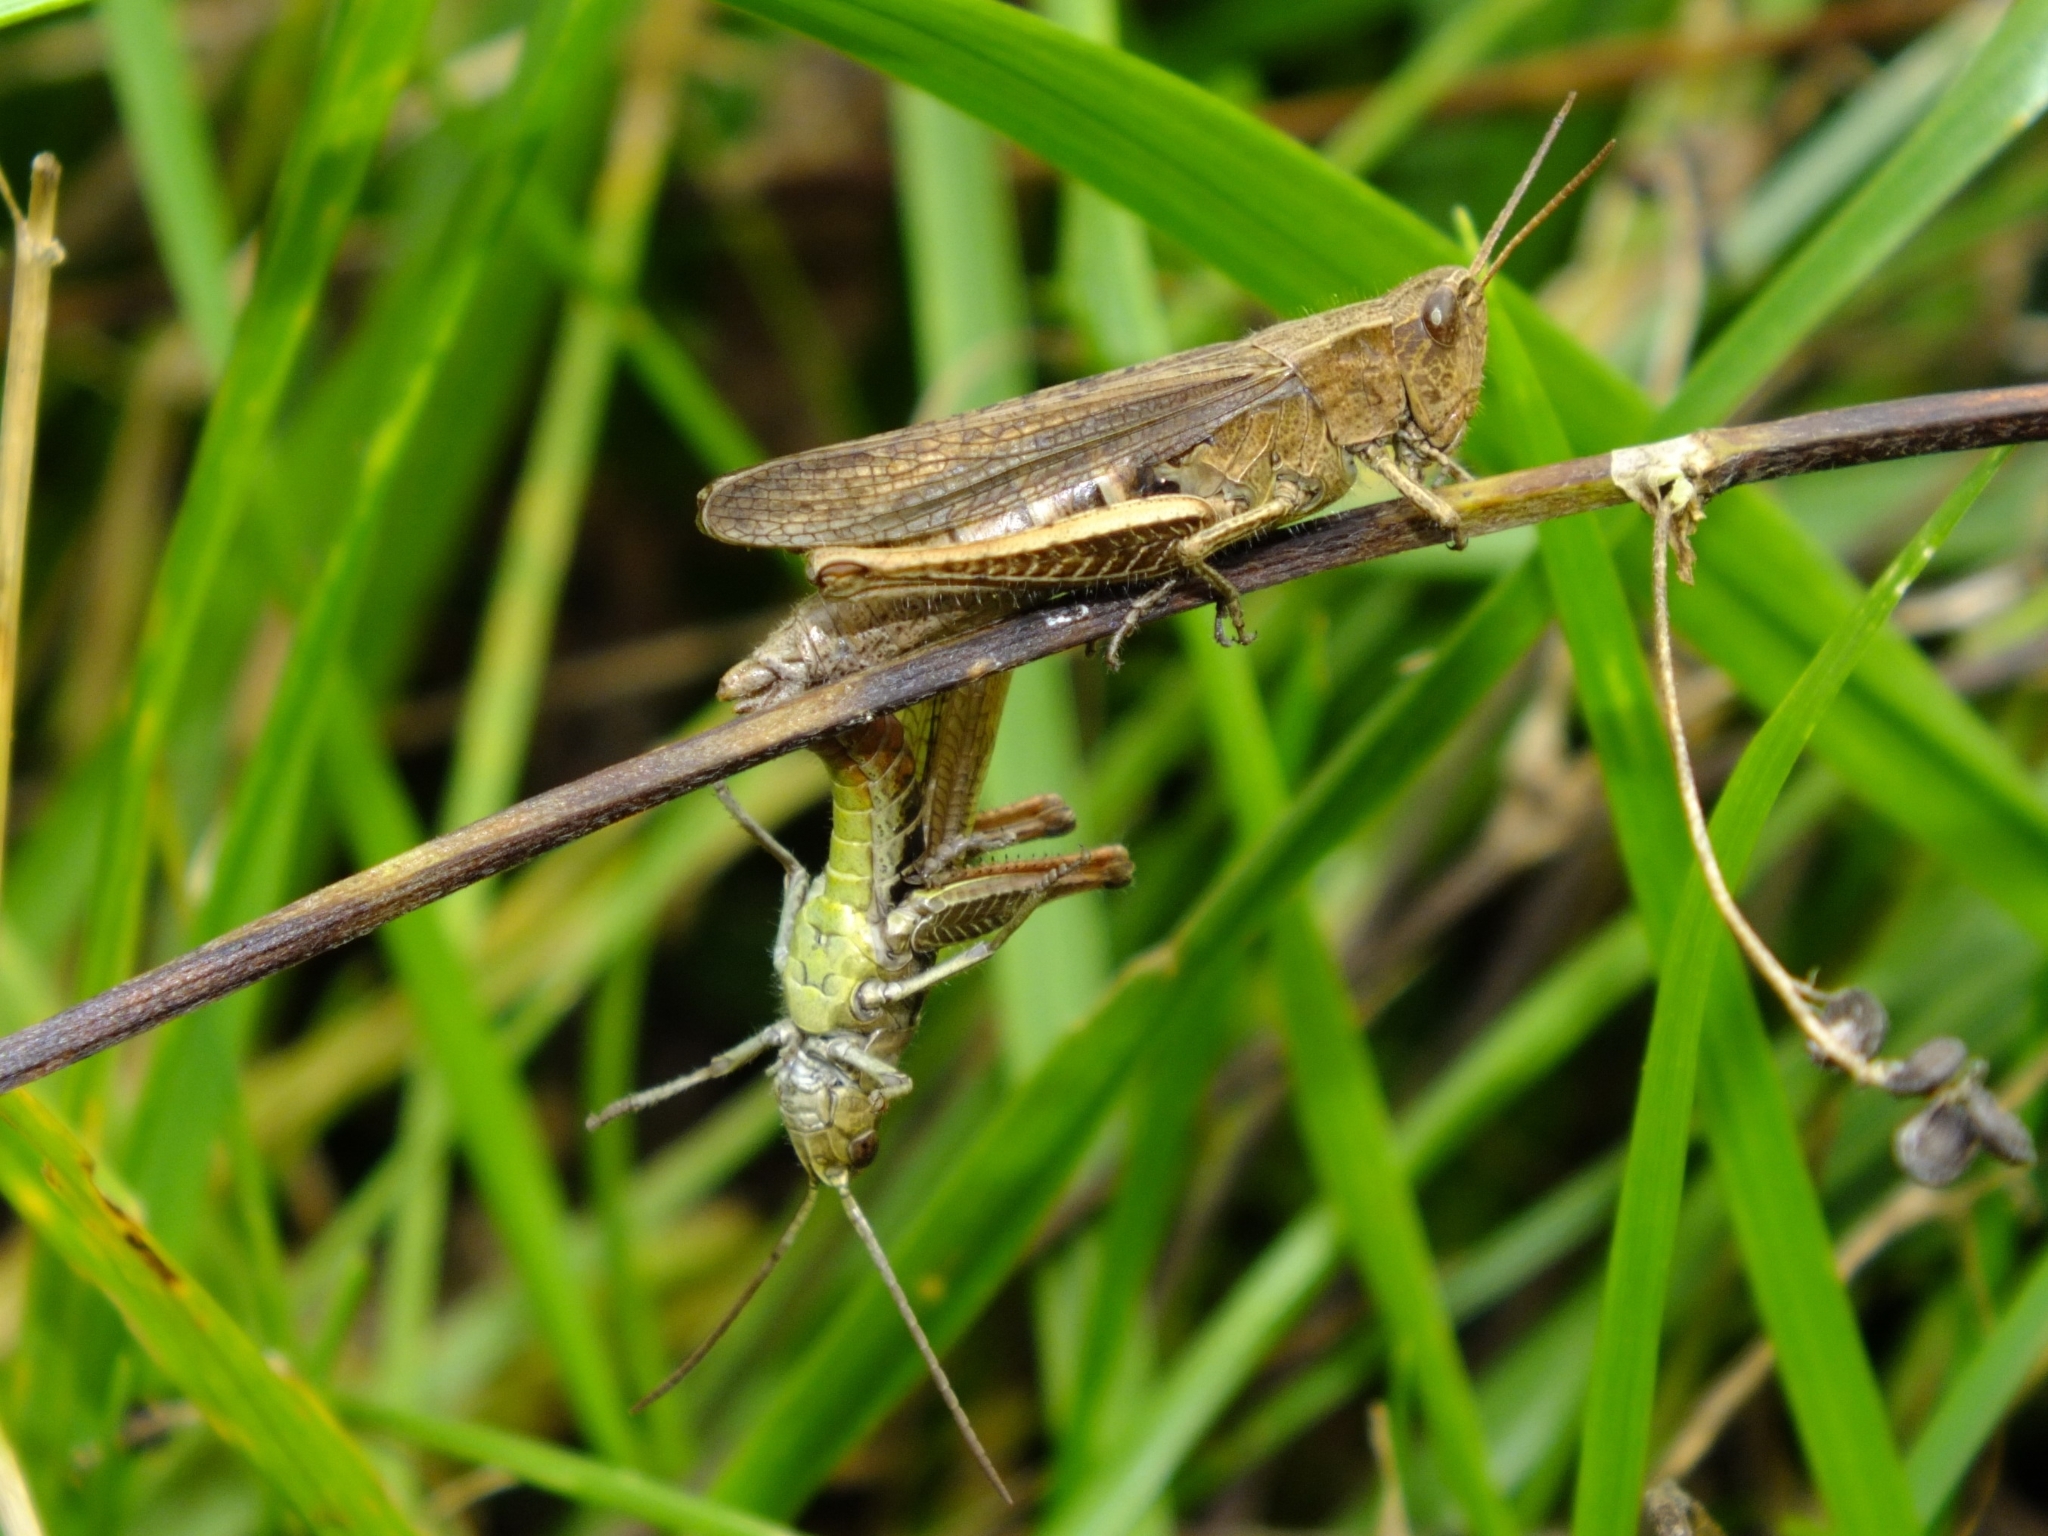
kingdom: Animalia
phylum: Arthropoda
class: Insecta
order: Orthoptera
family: Acrididae
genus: Chorthippus
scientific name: Chorthippus dorsatus
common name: Steppe grasshopper
